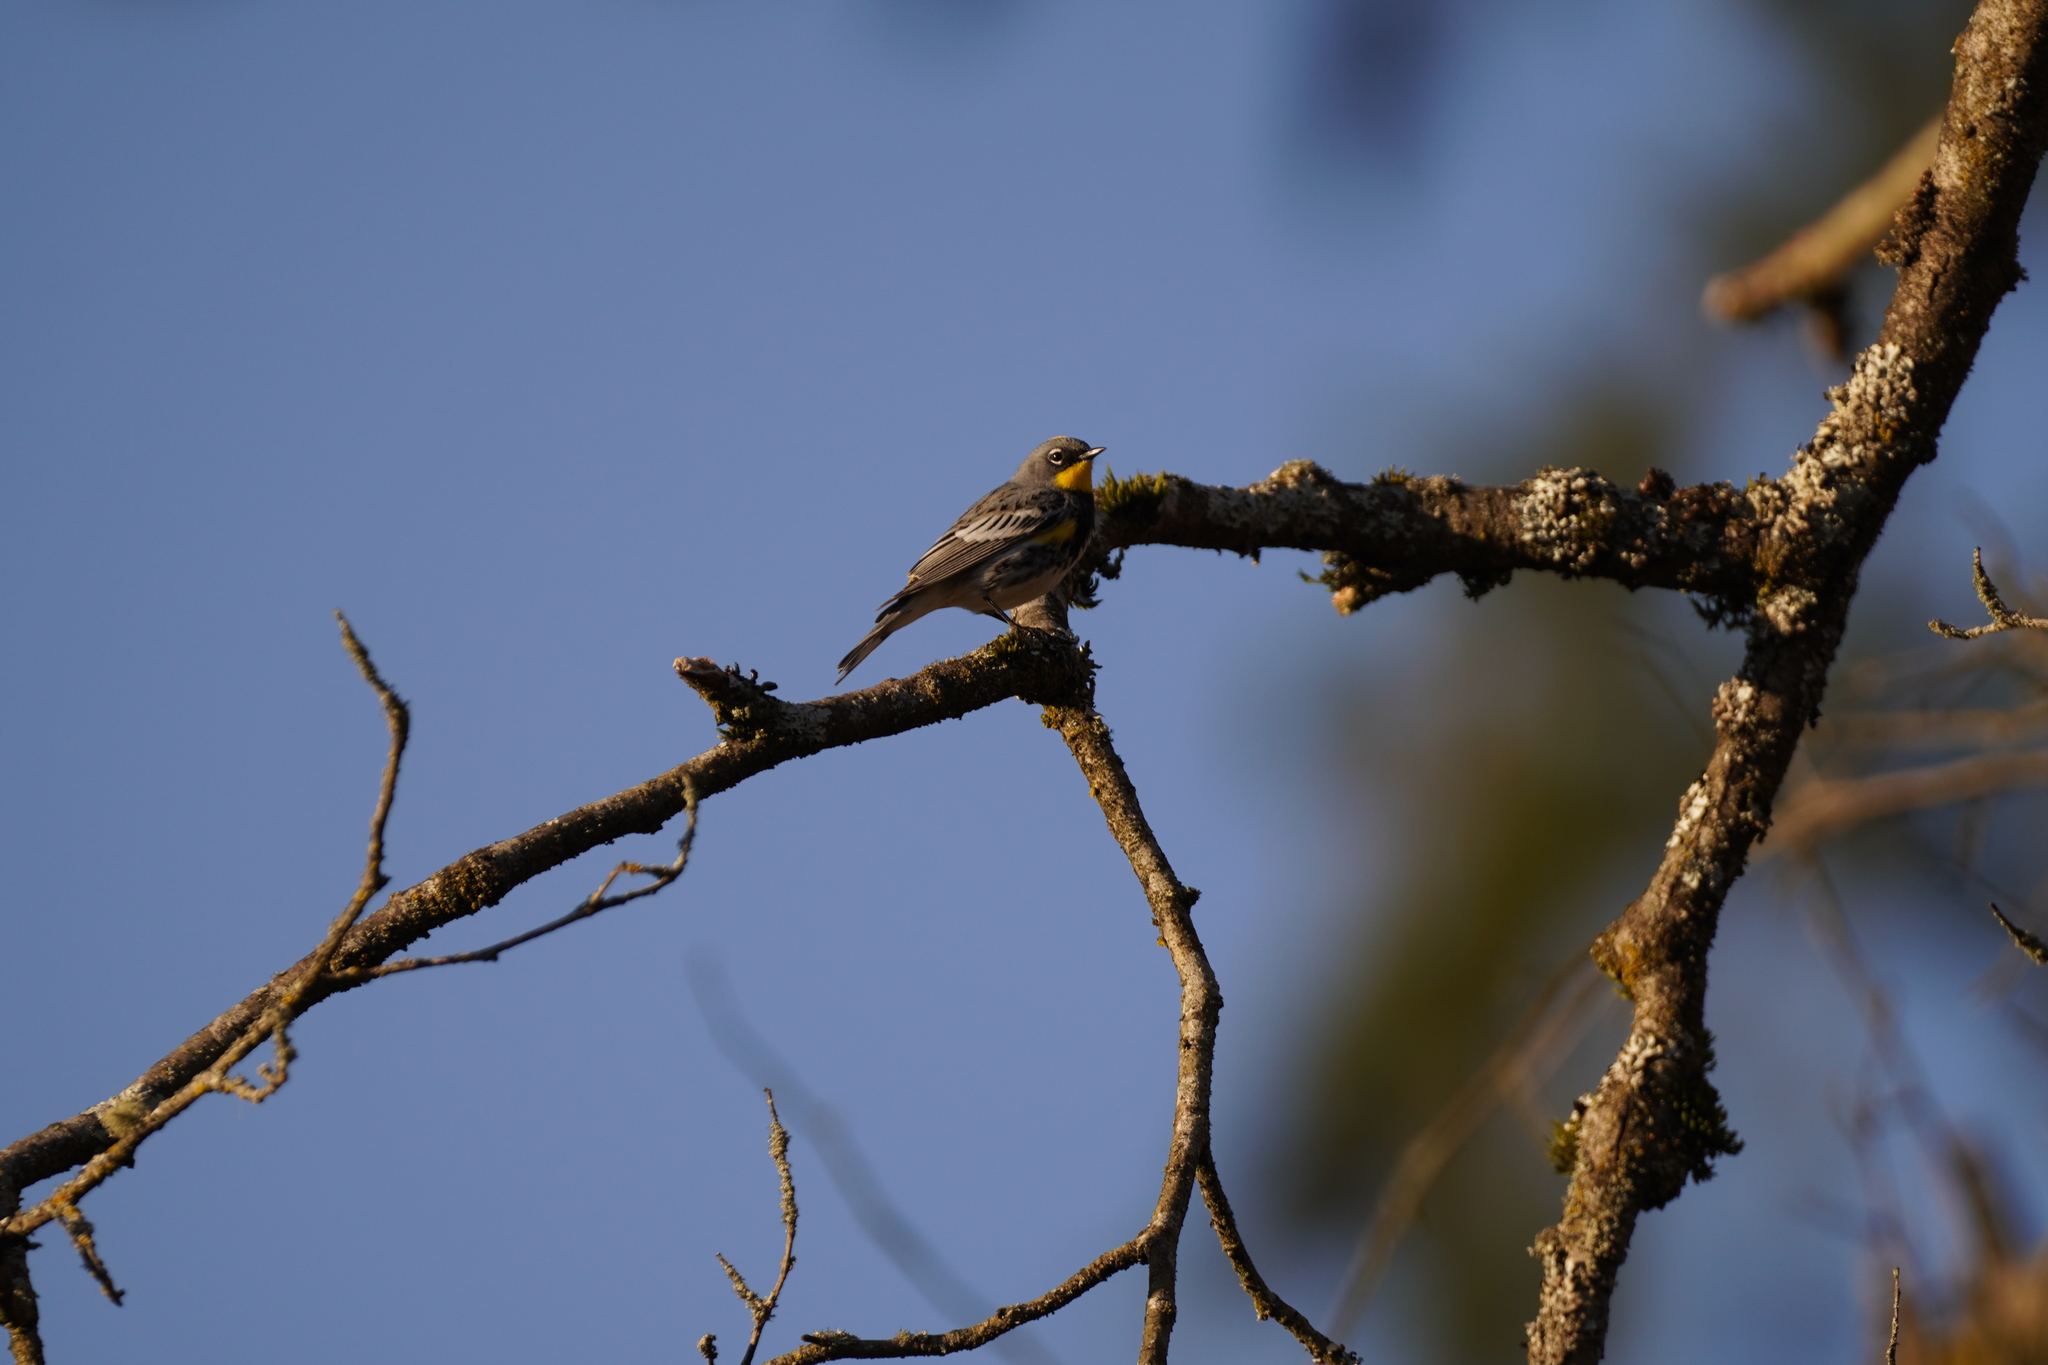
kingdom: Animalia
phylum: Chordata
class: Aves
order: Passeriformes
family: Parulidae
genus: Setophaga
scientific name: Setophaga auduboni
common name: Audubon's warbler
